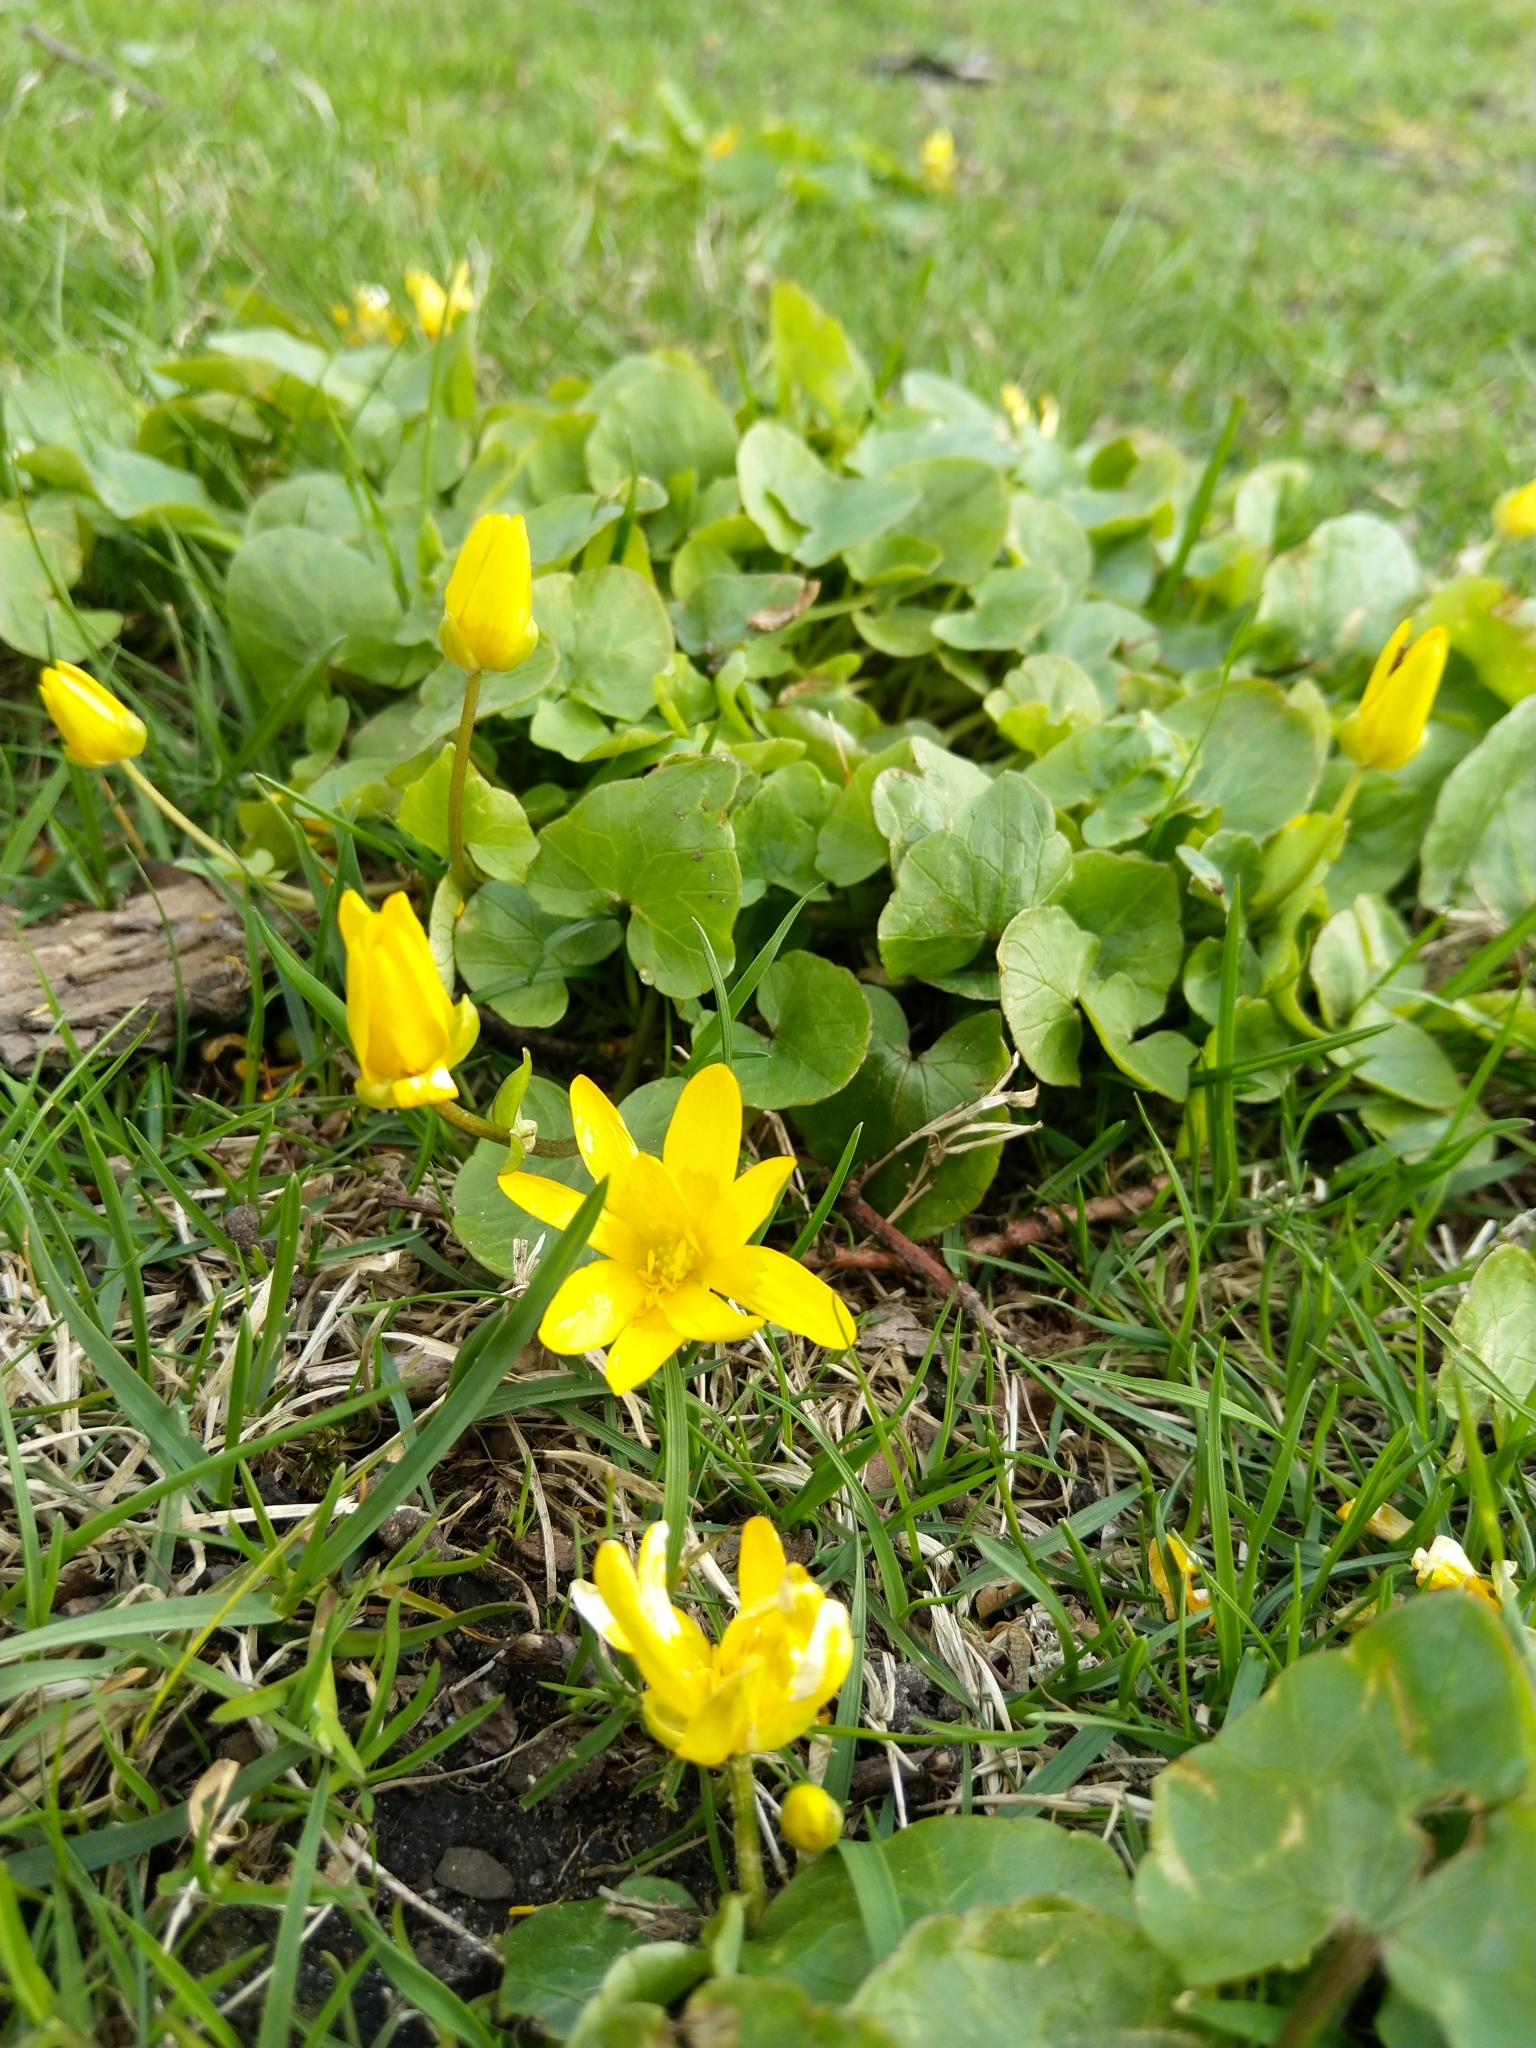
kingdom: Plantae
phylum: Tracheophyta
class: Magnoliopsida
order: Ranunculales
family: Ranunculaceae
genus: Ficaria
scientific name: Ficaria verna
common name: Lesser celandine
